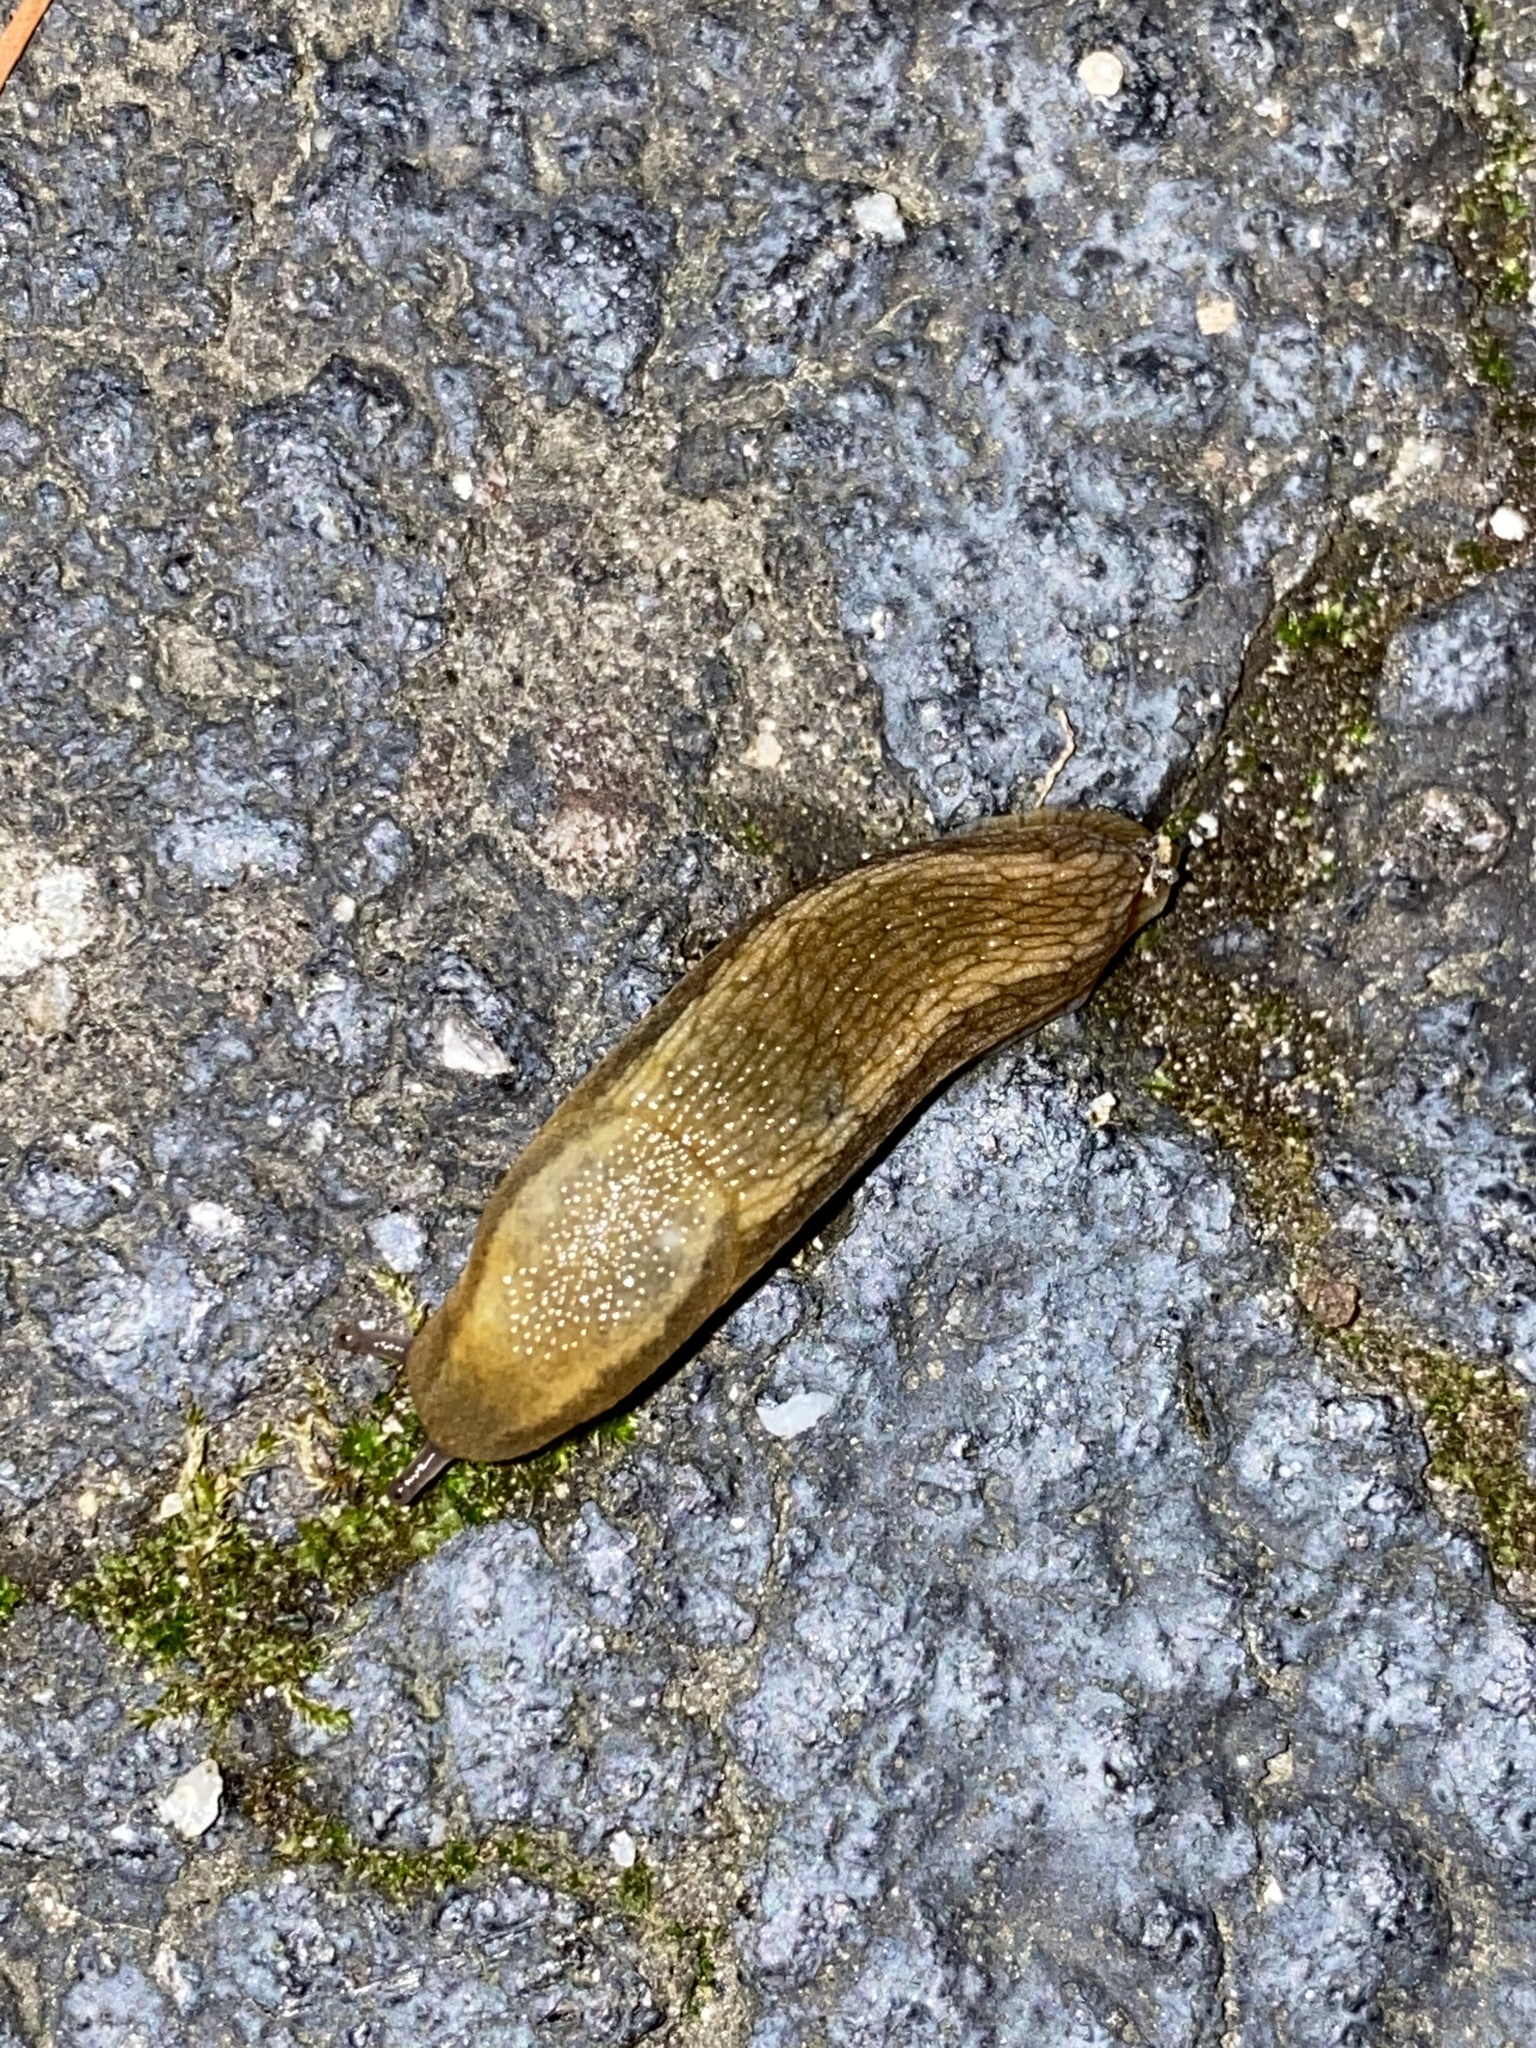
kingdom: Animalia
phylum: Mollusca
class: Gastropoda
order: Stylommatophora
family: Arionidae
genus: Arion
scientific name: Arion subfuscus
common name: Dusky arion
